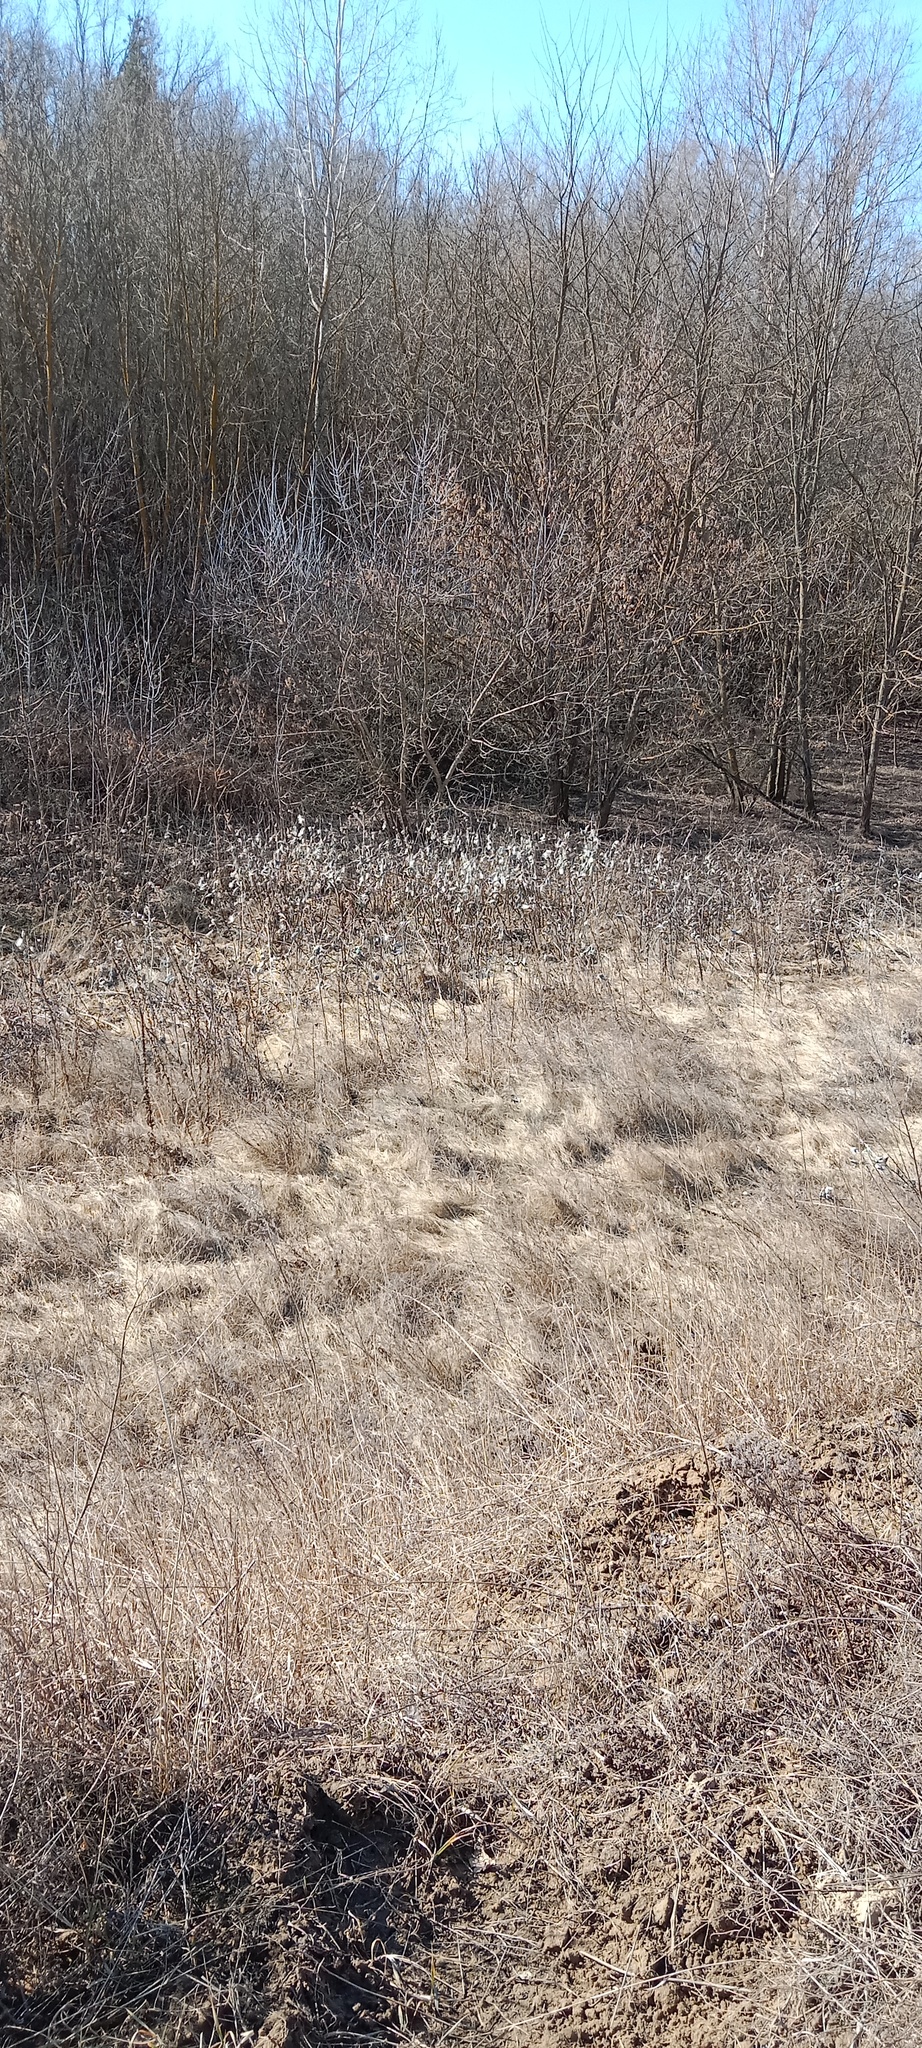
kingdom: Plantae
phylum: Tracheophyta
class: Magnoliopsida
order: Gentianales
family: Apocynaceae
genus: Asclepias
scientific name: Asclepias syriaca
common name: Common milkweed
